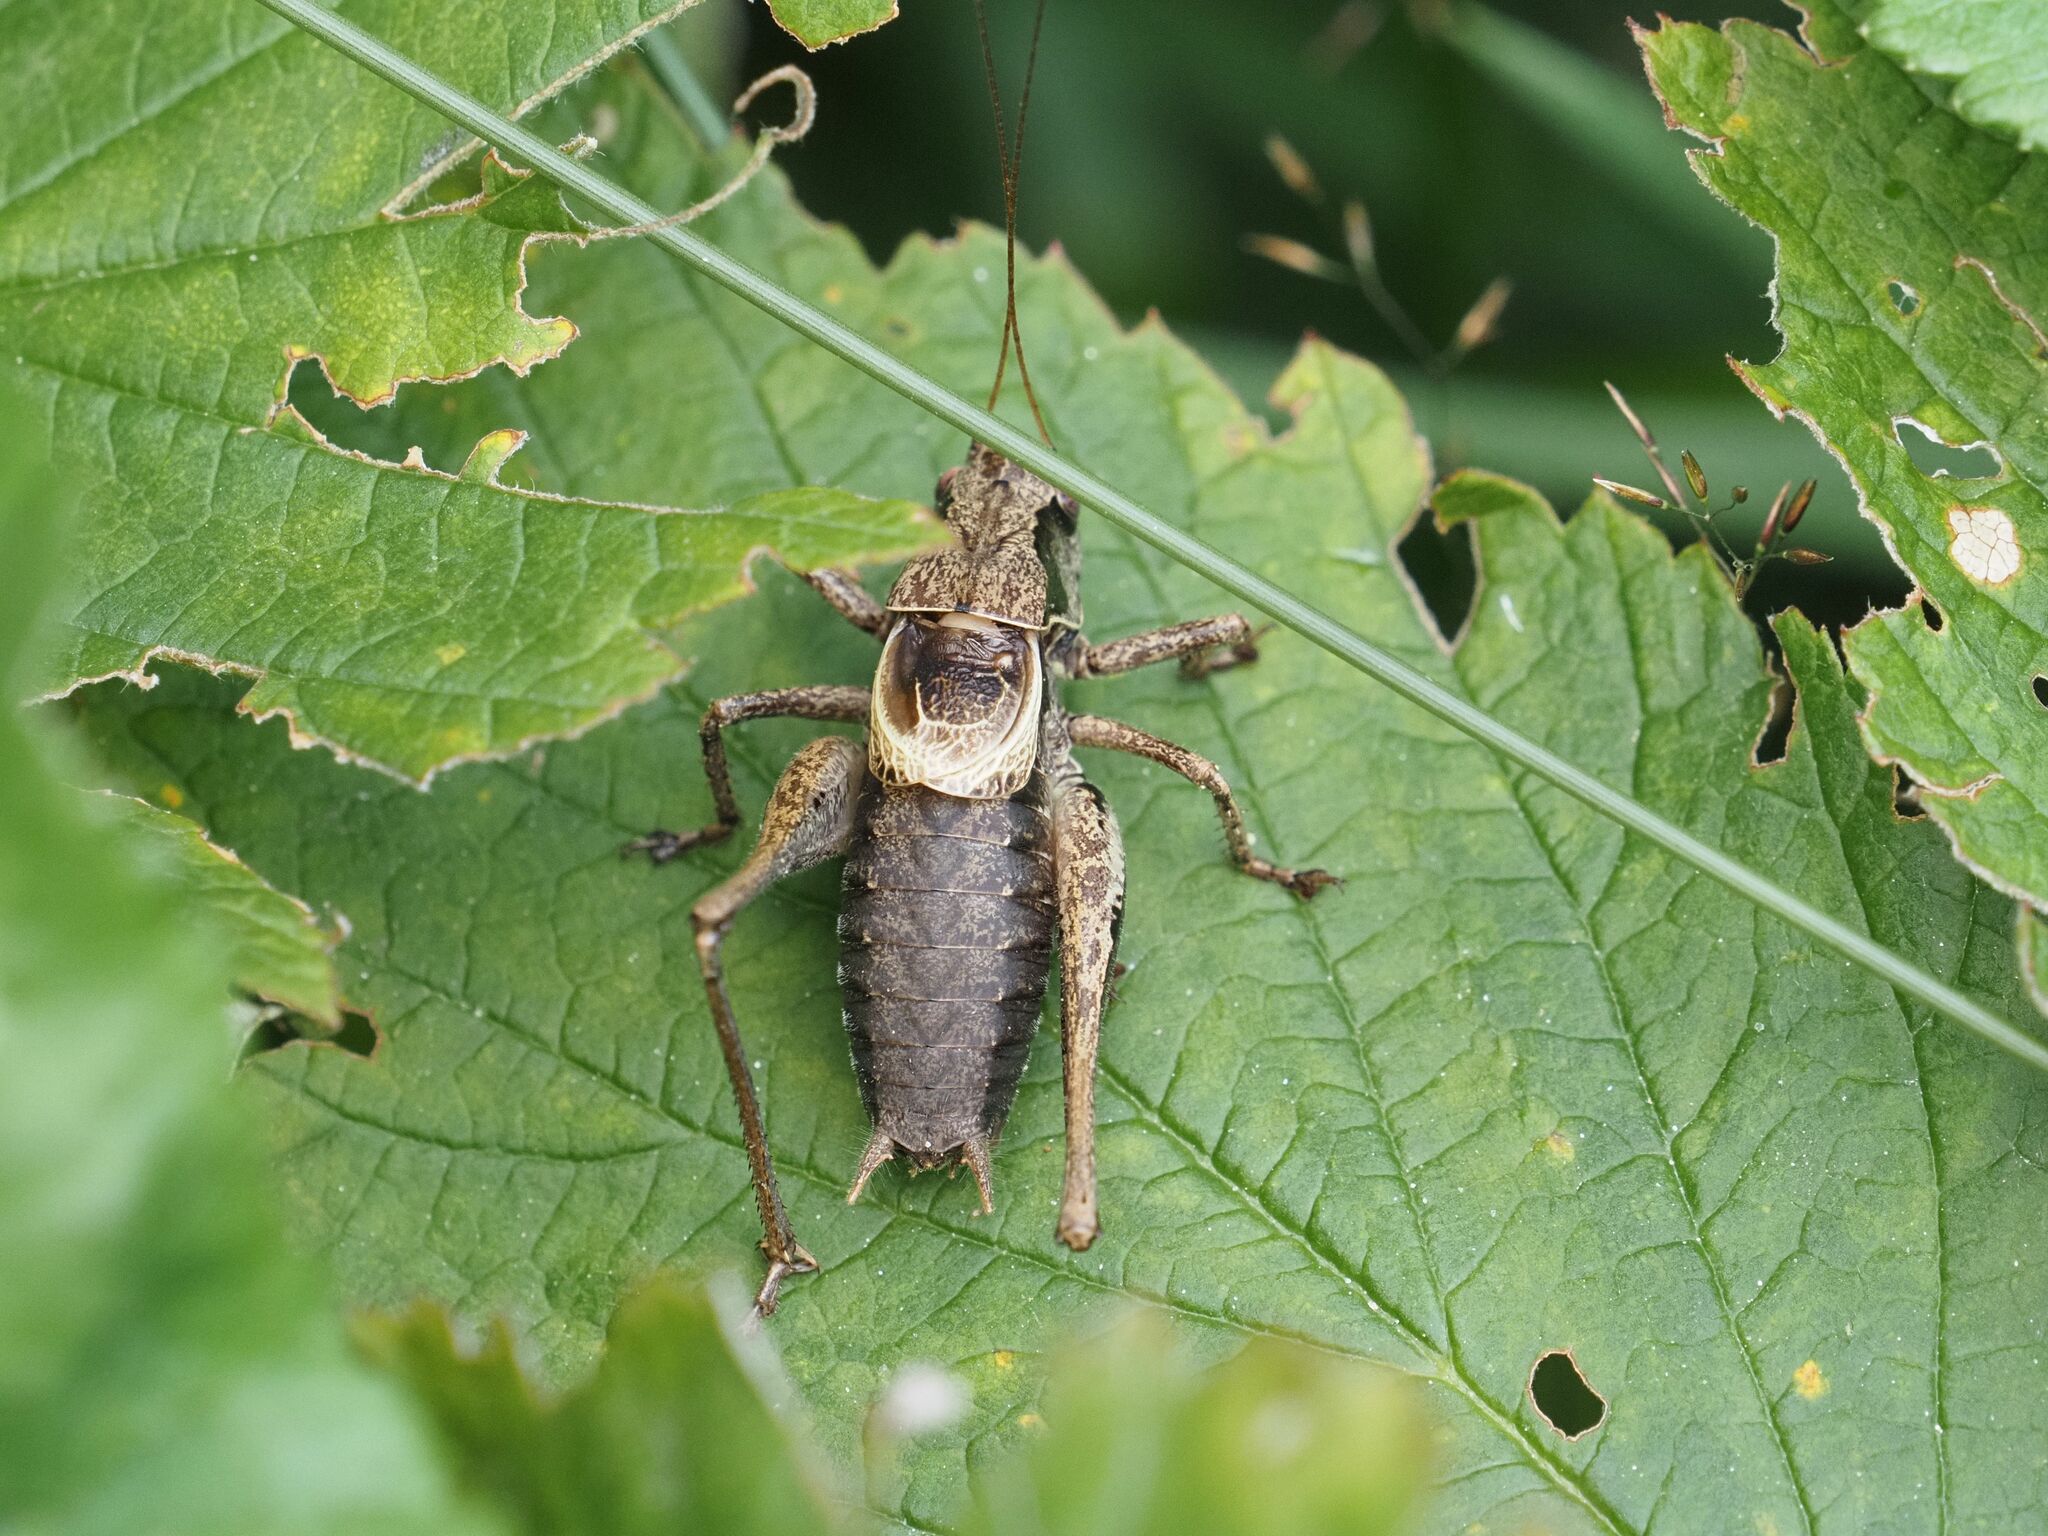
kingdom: Animalia
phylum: Arthropoda
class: Insecta
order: Orthoptera
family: Tettigoniidae
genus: Pholidoptera
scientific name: Pholidoptera griseoaptera
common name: Dark bush-cricket
